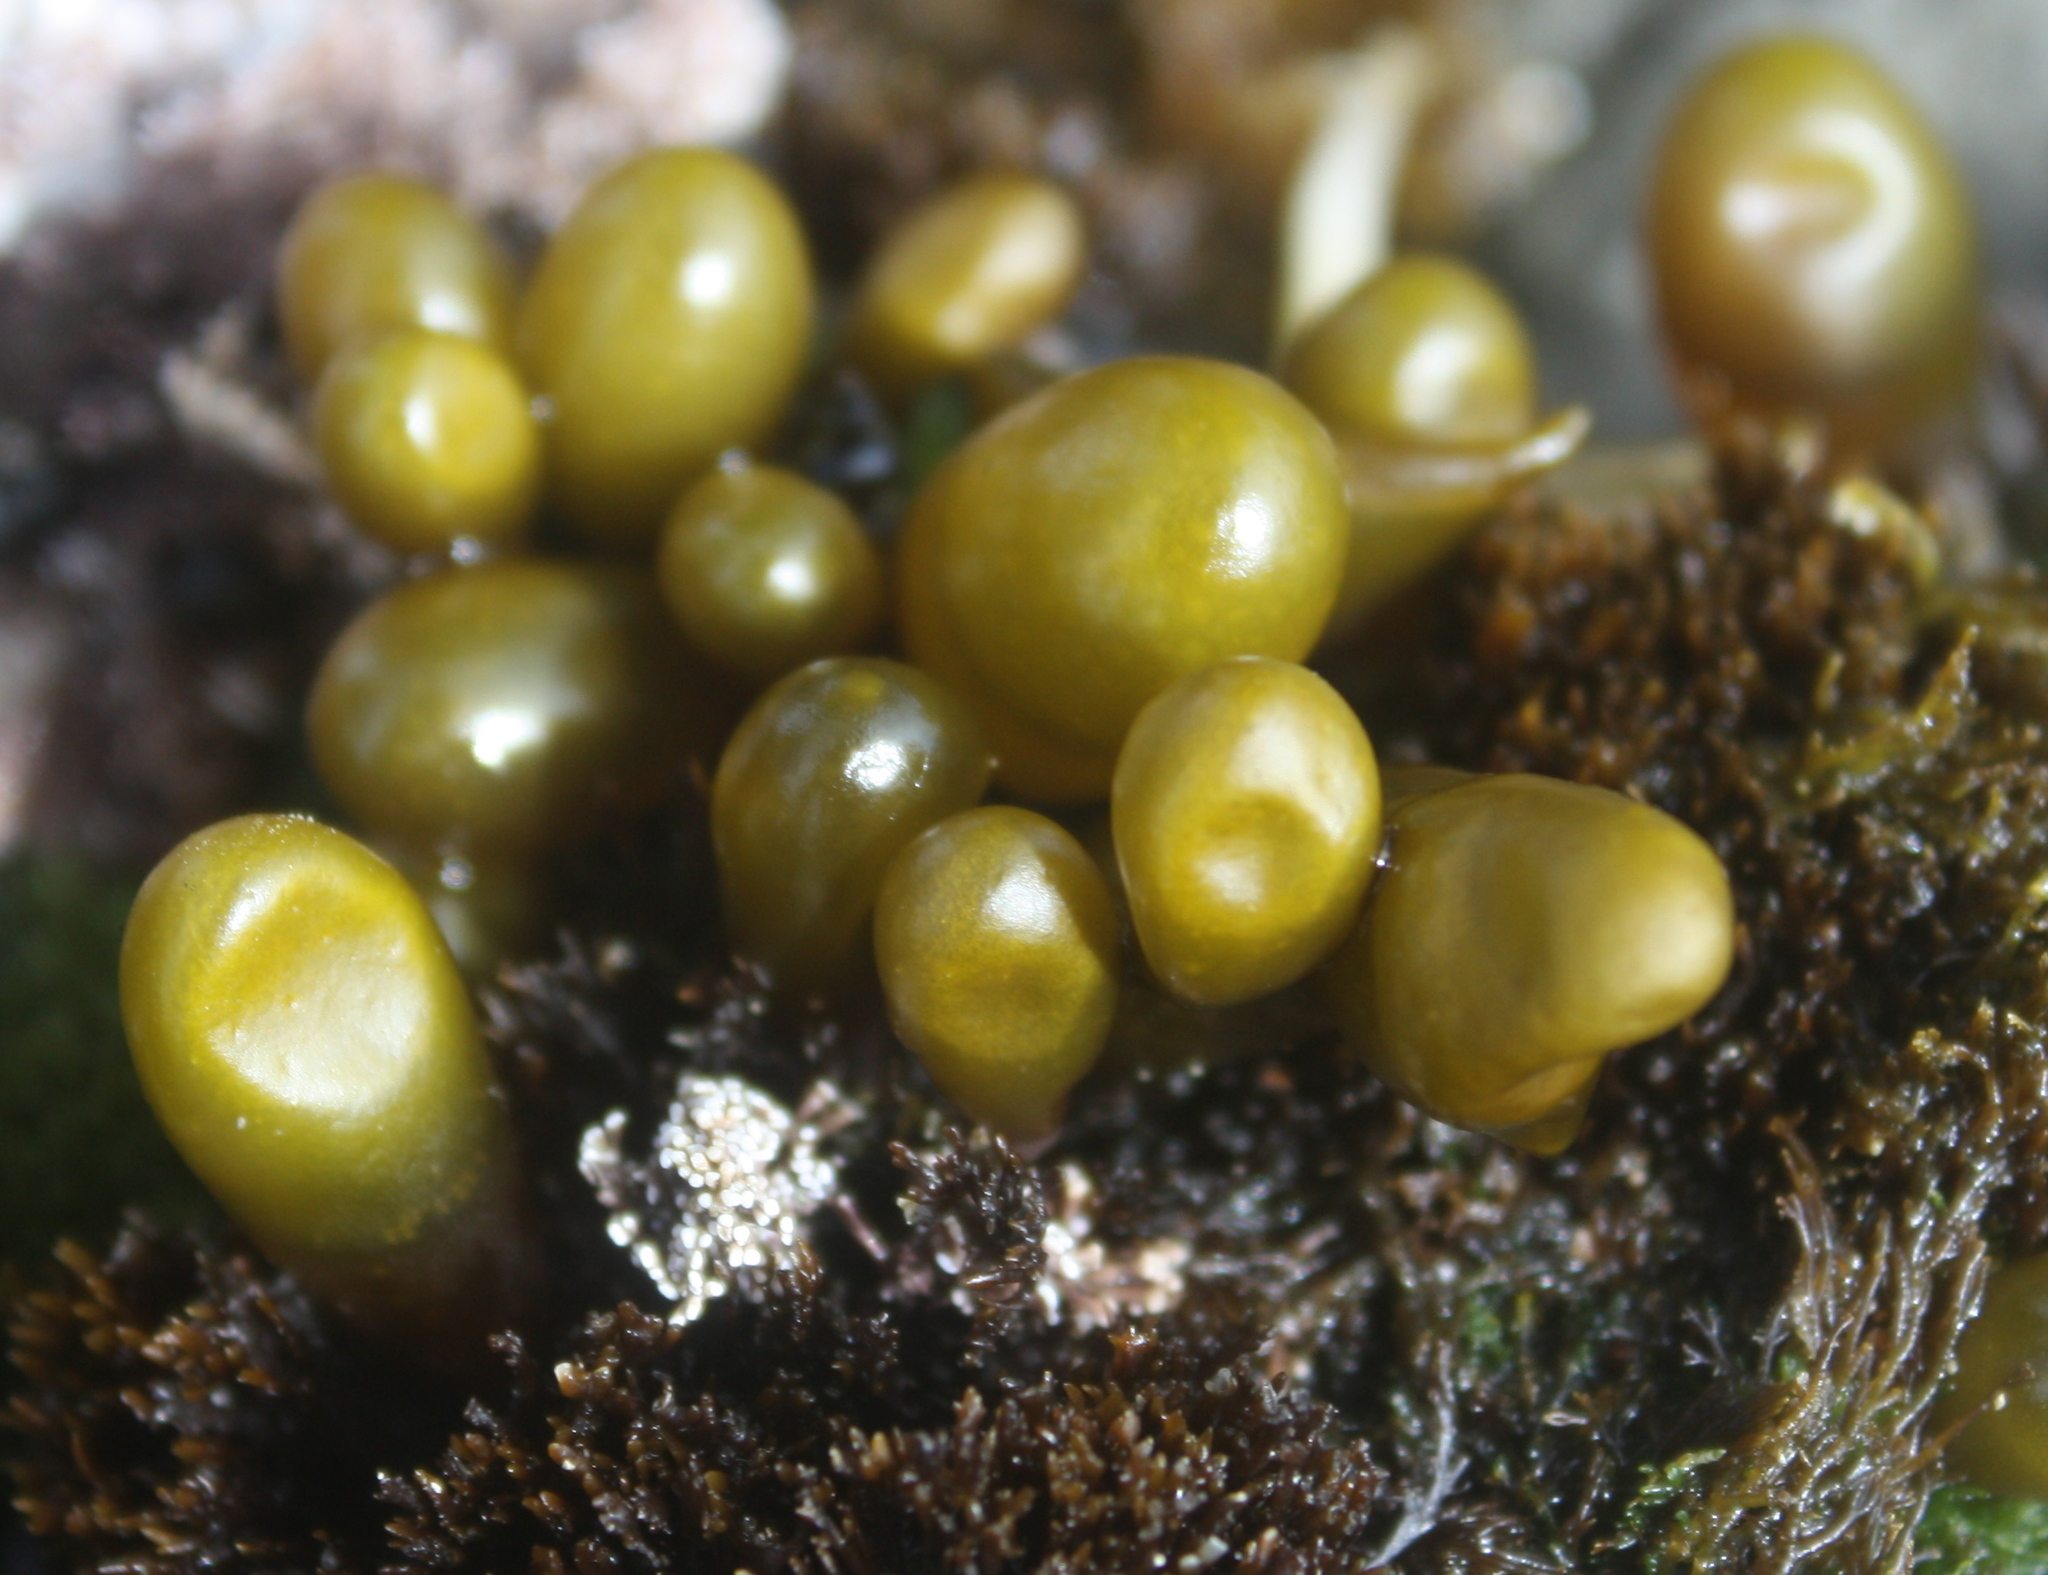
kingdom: Plantae
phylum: Rhodophyta
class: Florideophyceae
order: Palmariales
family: Palmariaceae
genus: Halosaccion
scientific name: Halosaccion glandiforme
